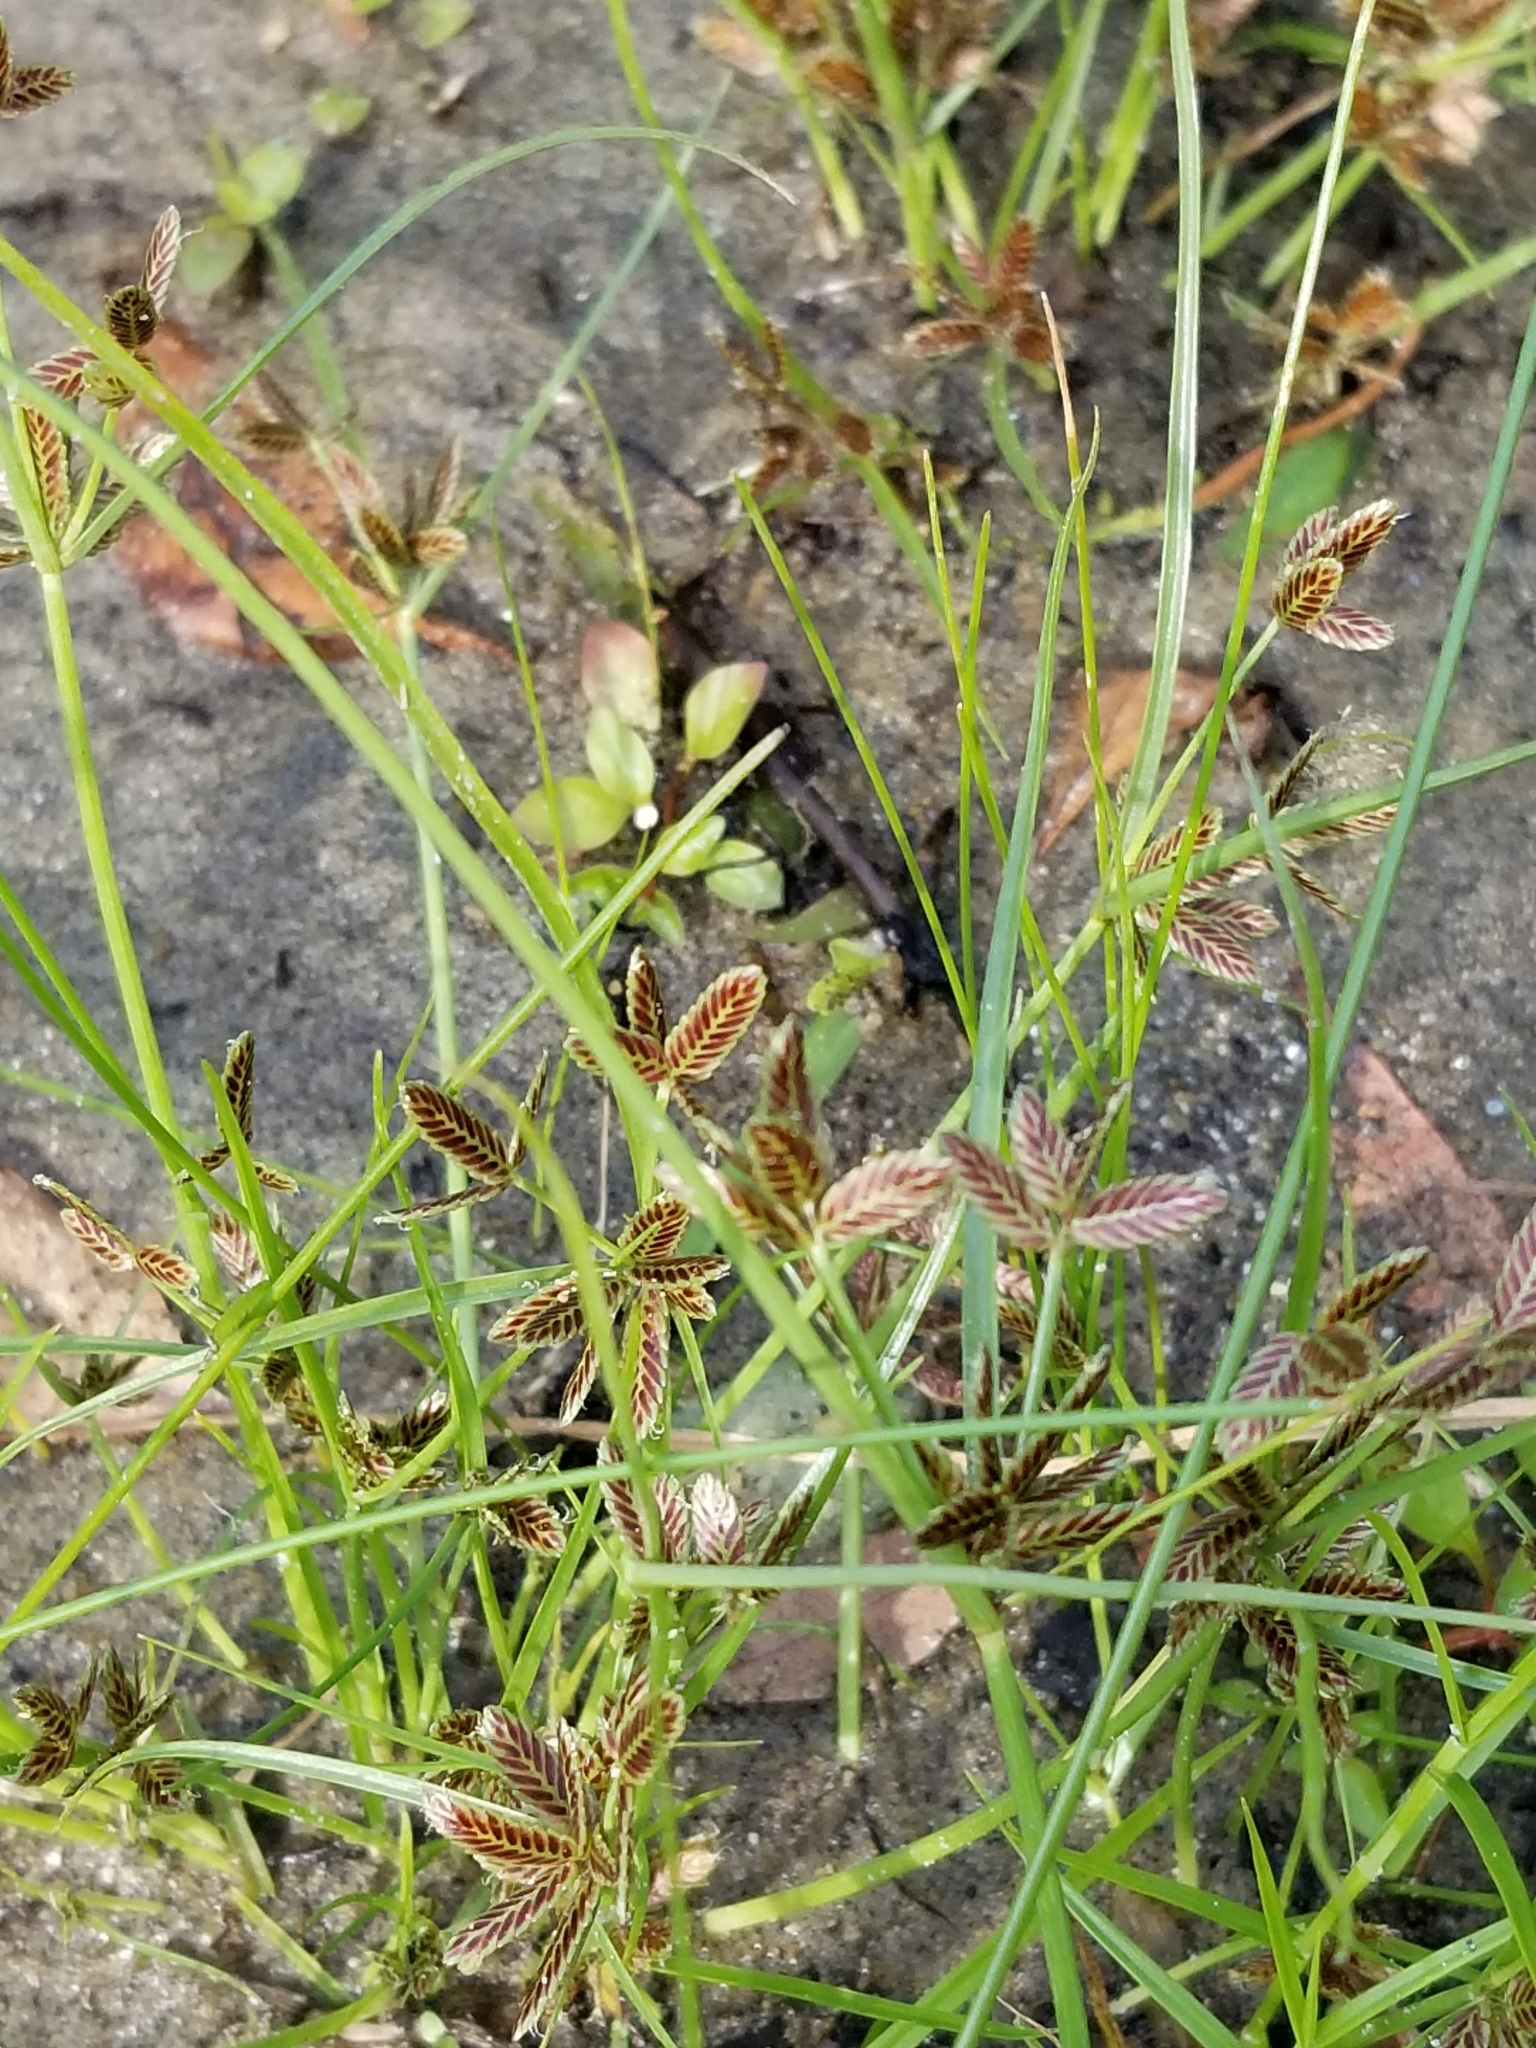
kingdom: Plantae
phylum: Tracheophyta
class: Liliopsida
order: Poales
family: Cyperaceae
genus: Cyperus
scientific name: Cyperus bipartitus
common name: Brook flatsedge
